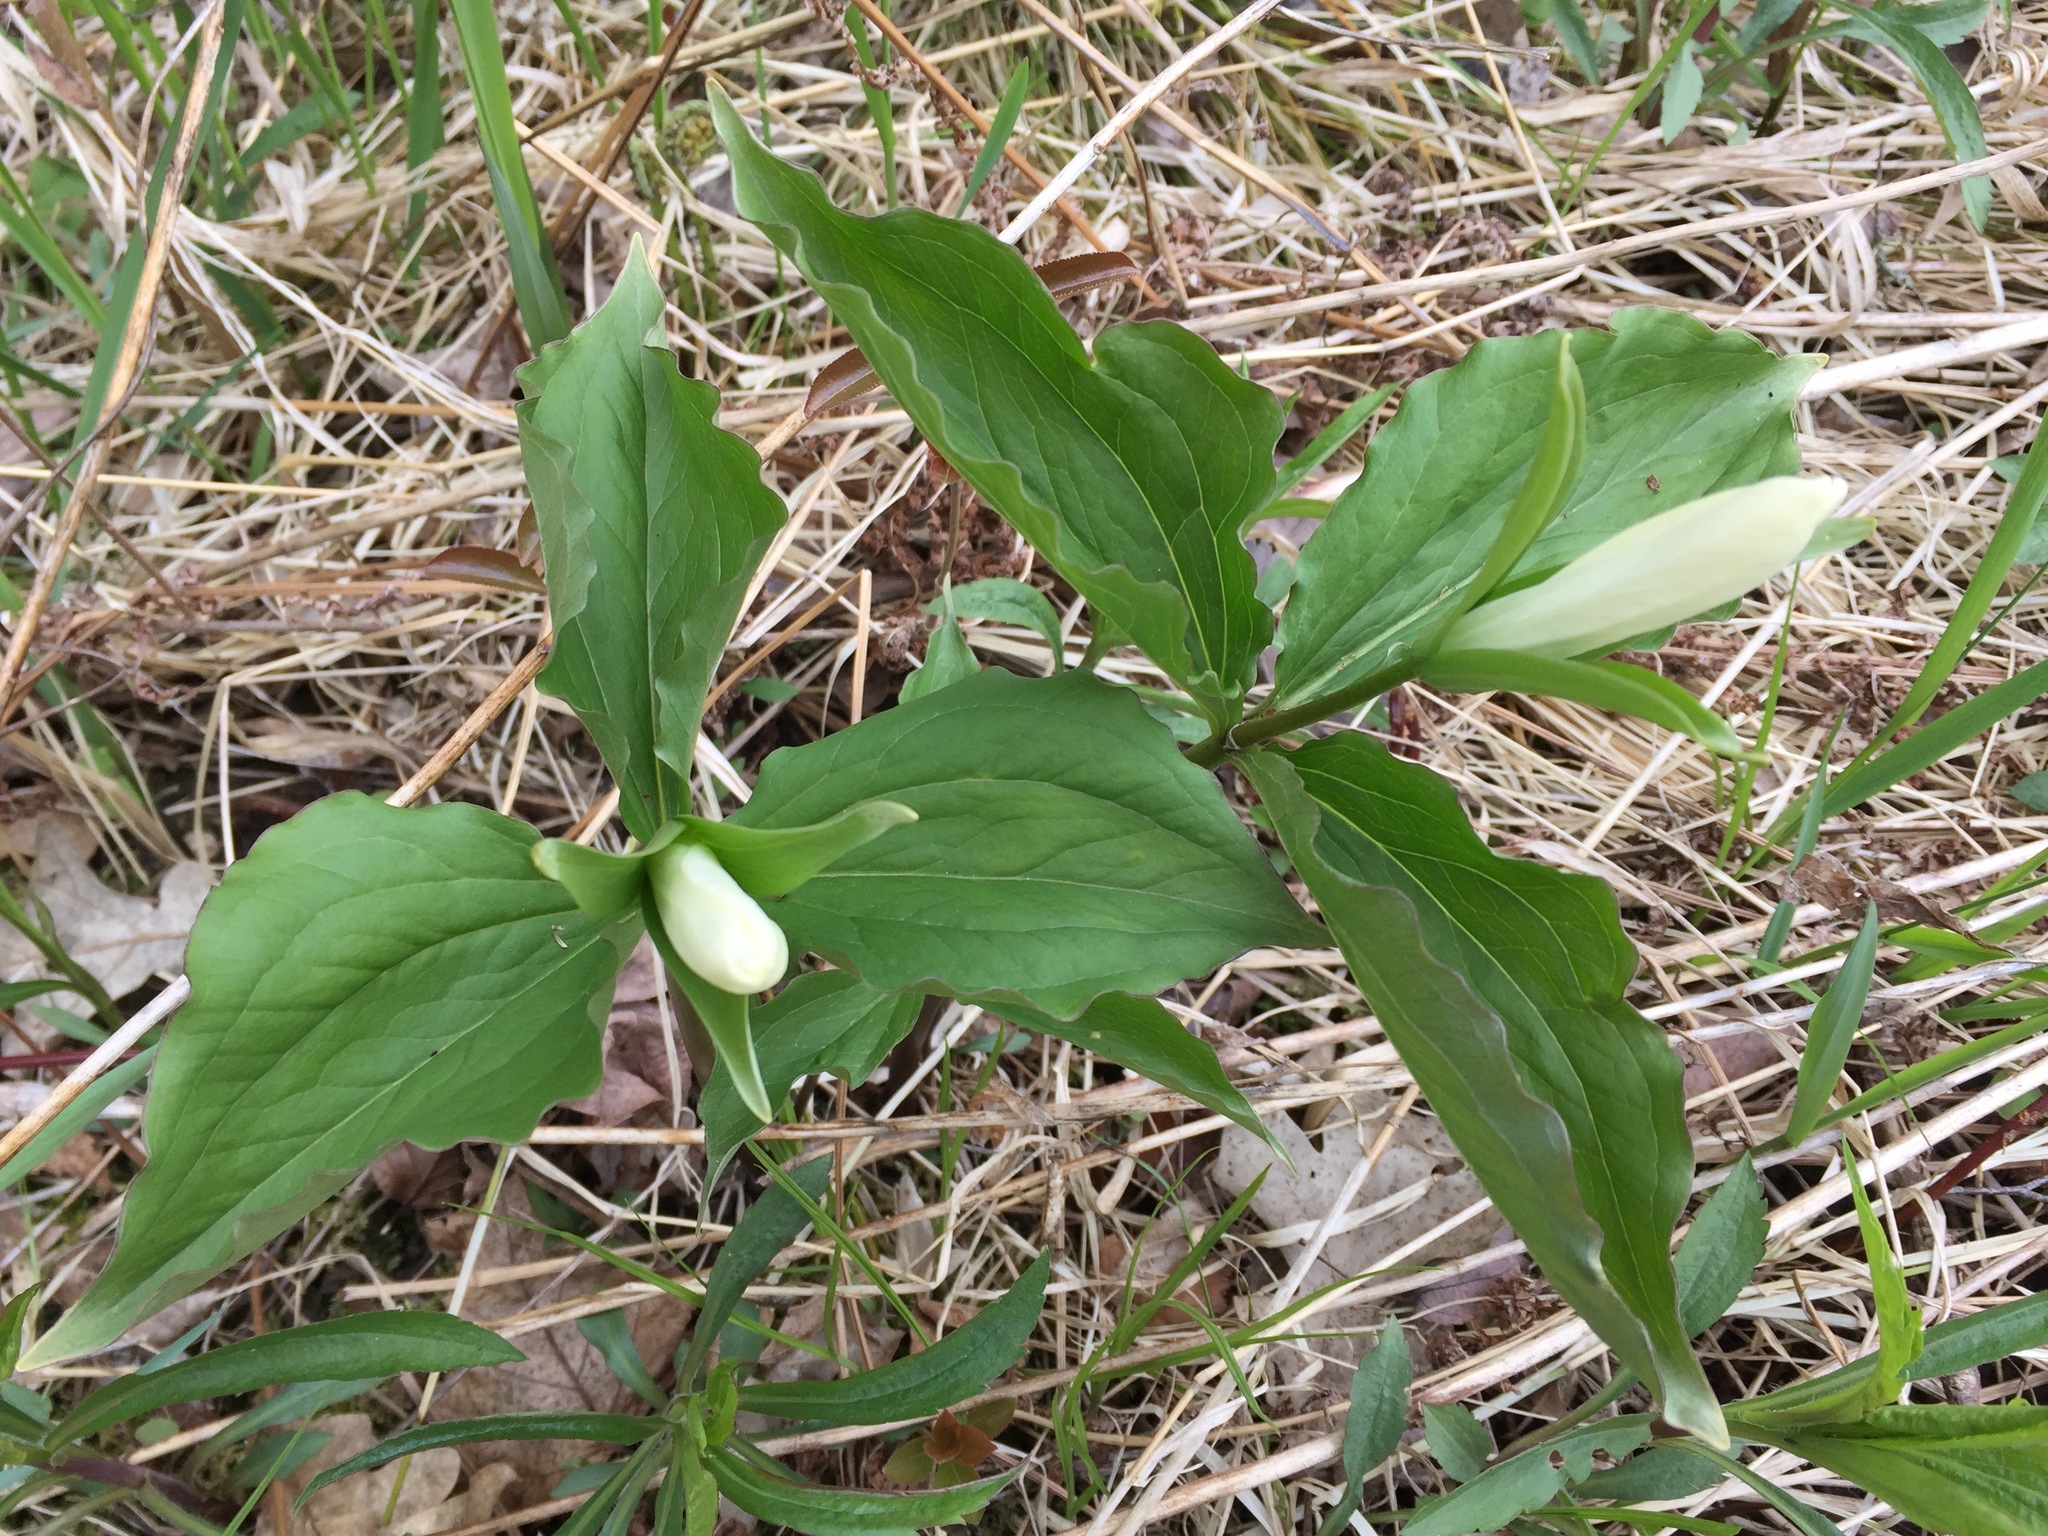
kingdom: Plantae
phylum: Tracheophyta
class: Liliopsida
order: Liliales
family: Melanthiaceae
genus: Trillium
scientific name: Trillium grandiflorum
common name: Great white trillium
